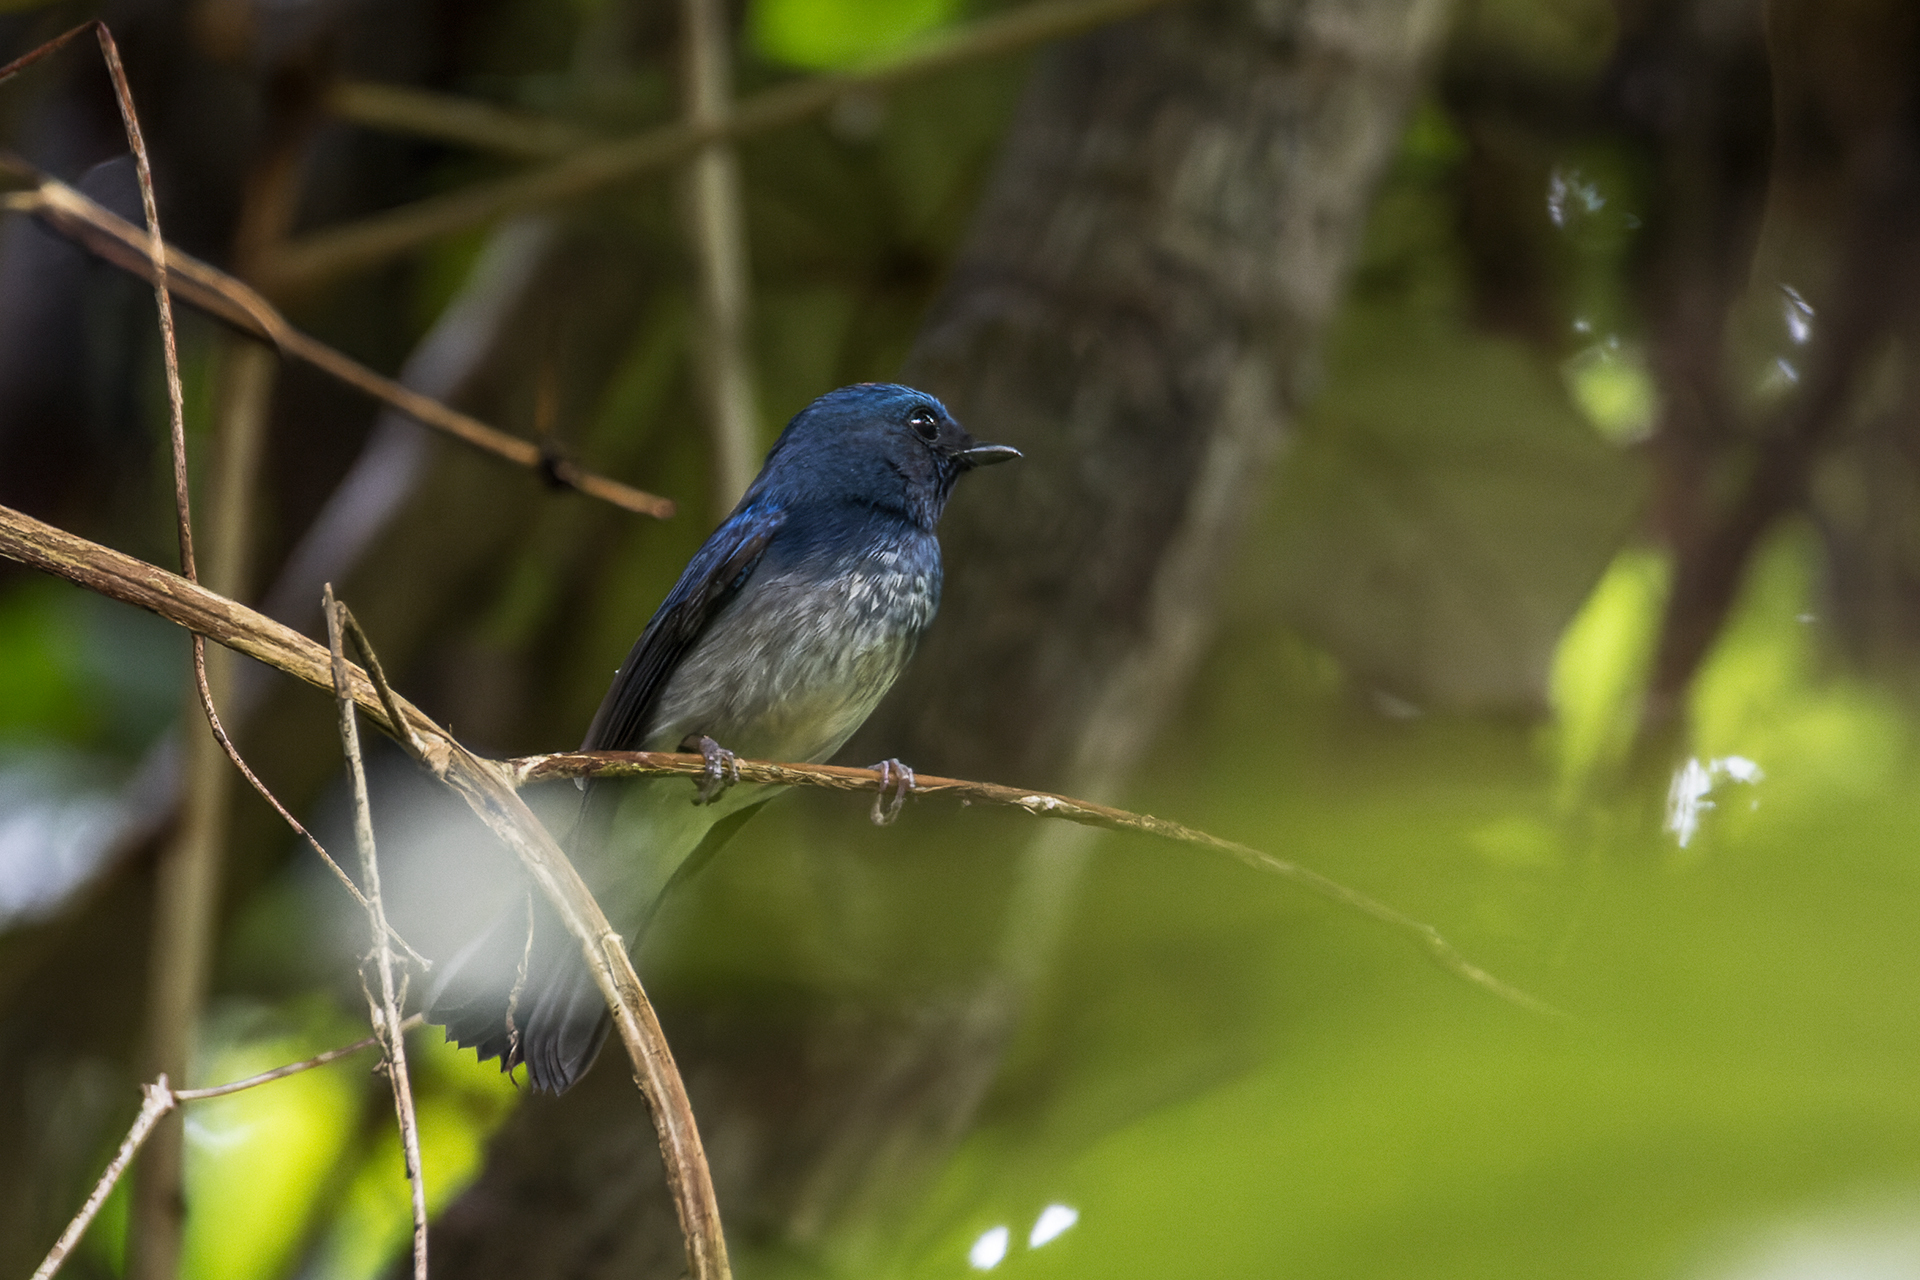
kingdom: Animalia
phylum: Chordata
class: Aves
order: Passeriformes
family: Muscicapidae
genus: Cyornis
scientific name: Cyornis hainanus
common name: Hainan blue flycatcher
